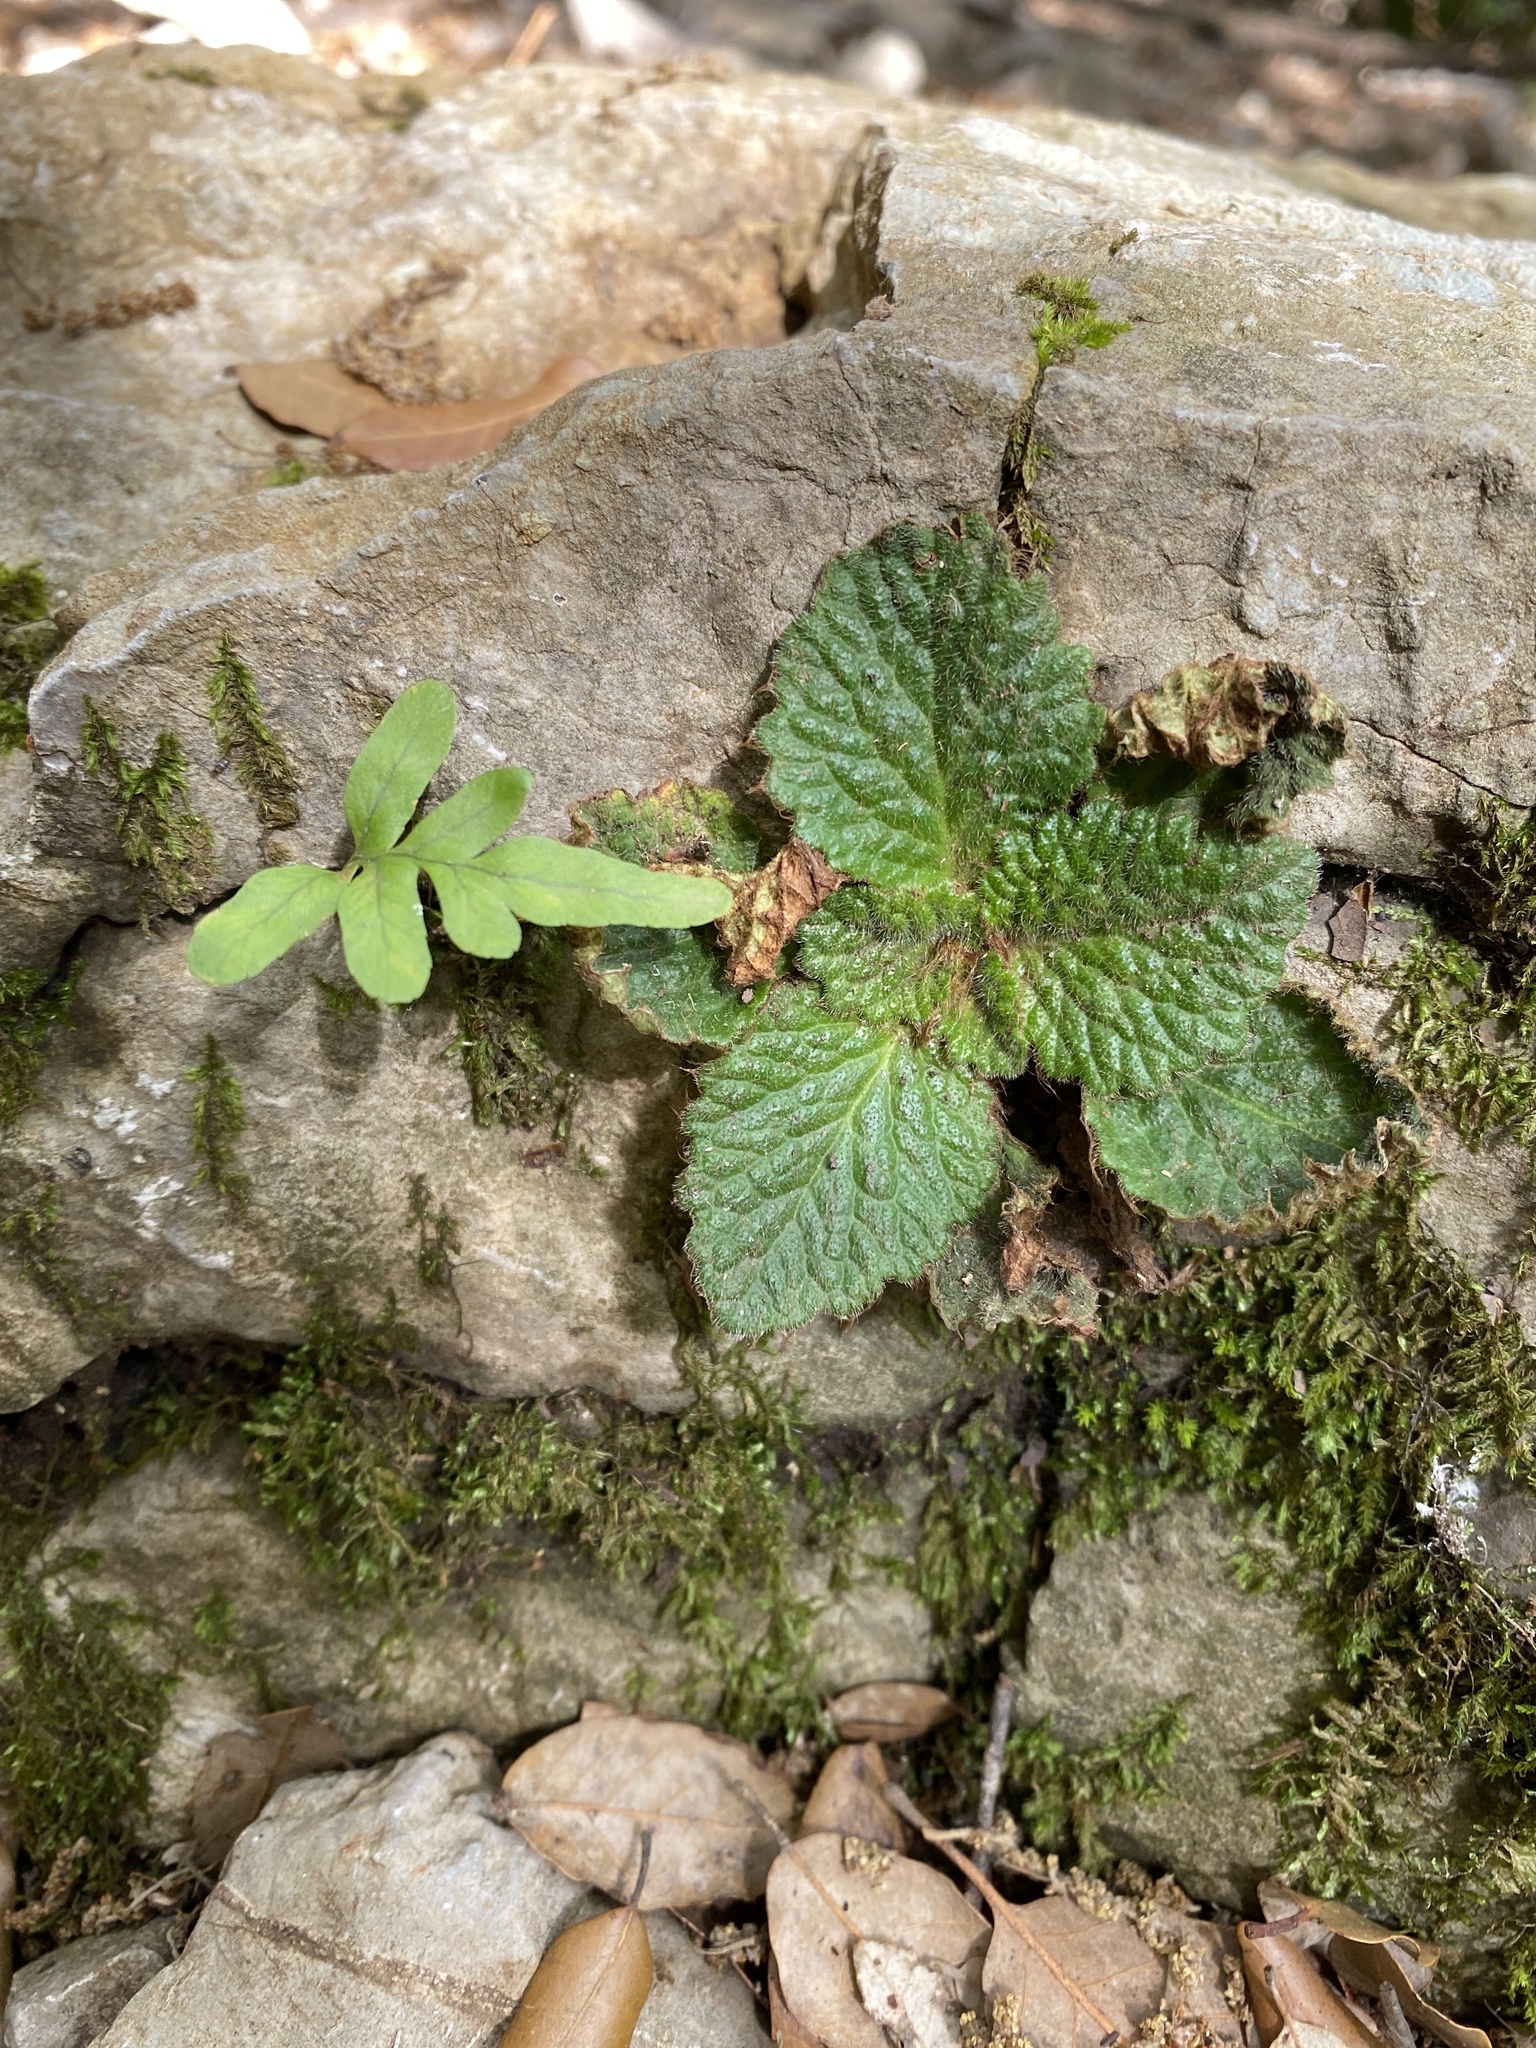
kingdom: Plantae
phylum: Tracheophyta
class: Magnoliopsida
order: Lamiales
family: Gesneriaceae
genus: Ramonda
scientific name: Ramonda myconi
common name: Pyrenean-violet
